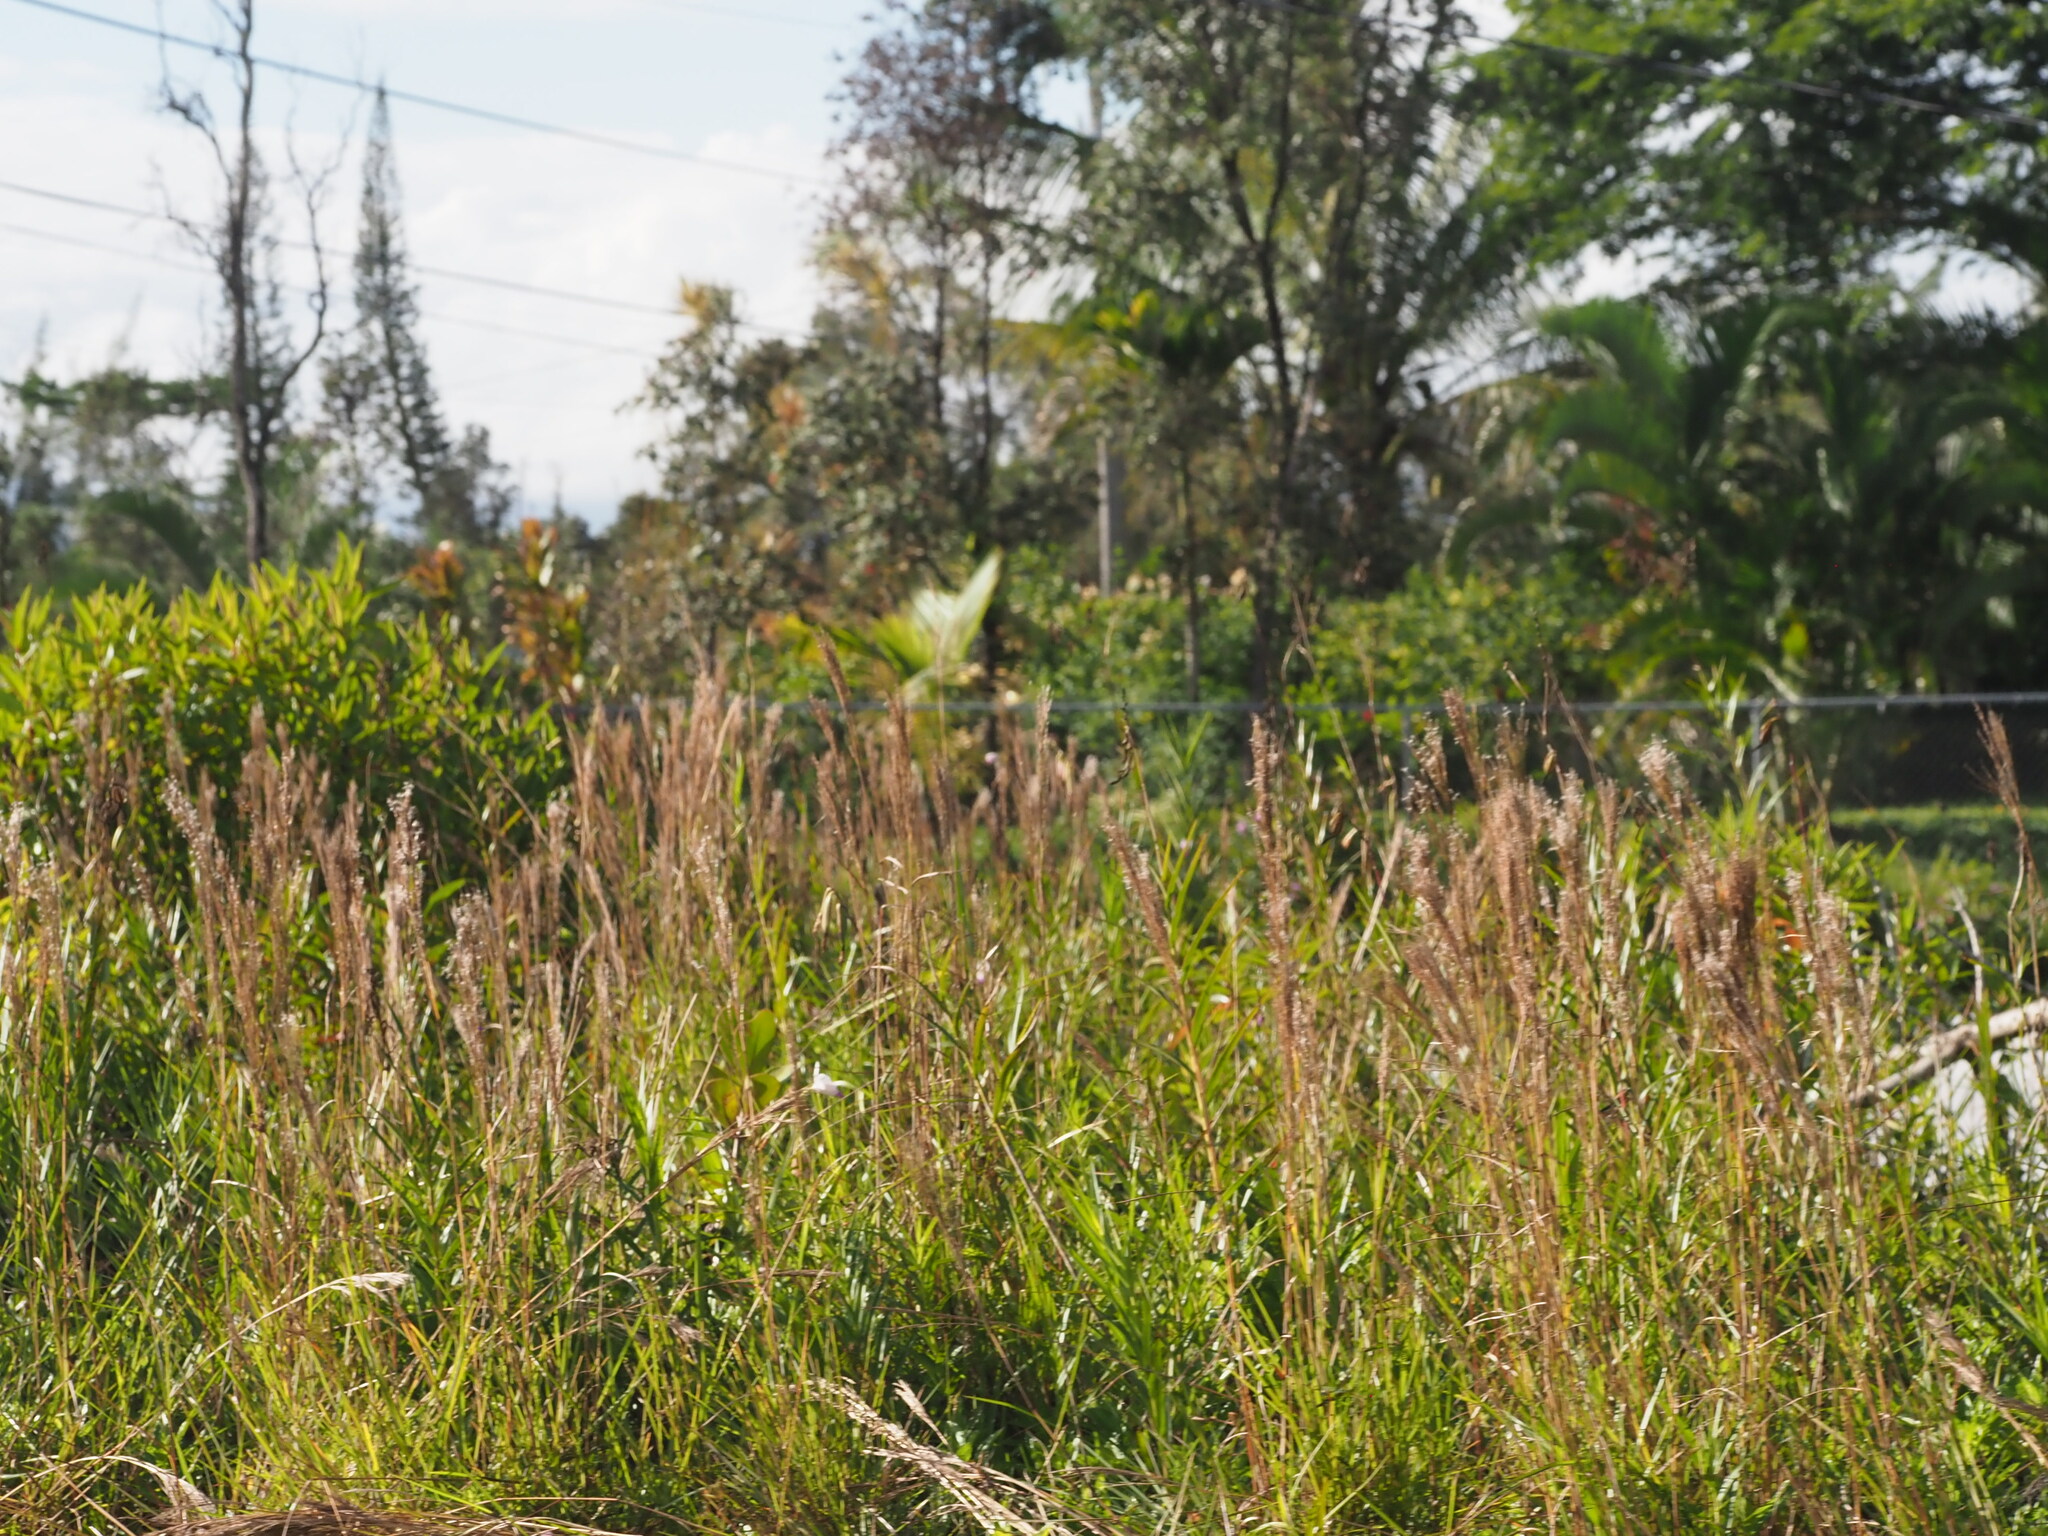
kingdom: Plantae
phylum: Tracheophyta
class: Liliopsida
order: Poales
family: Poaceae
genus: Schizachyrium
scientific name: Schizachyrium microstachyum
